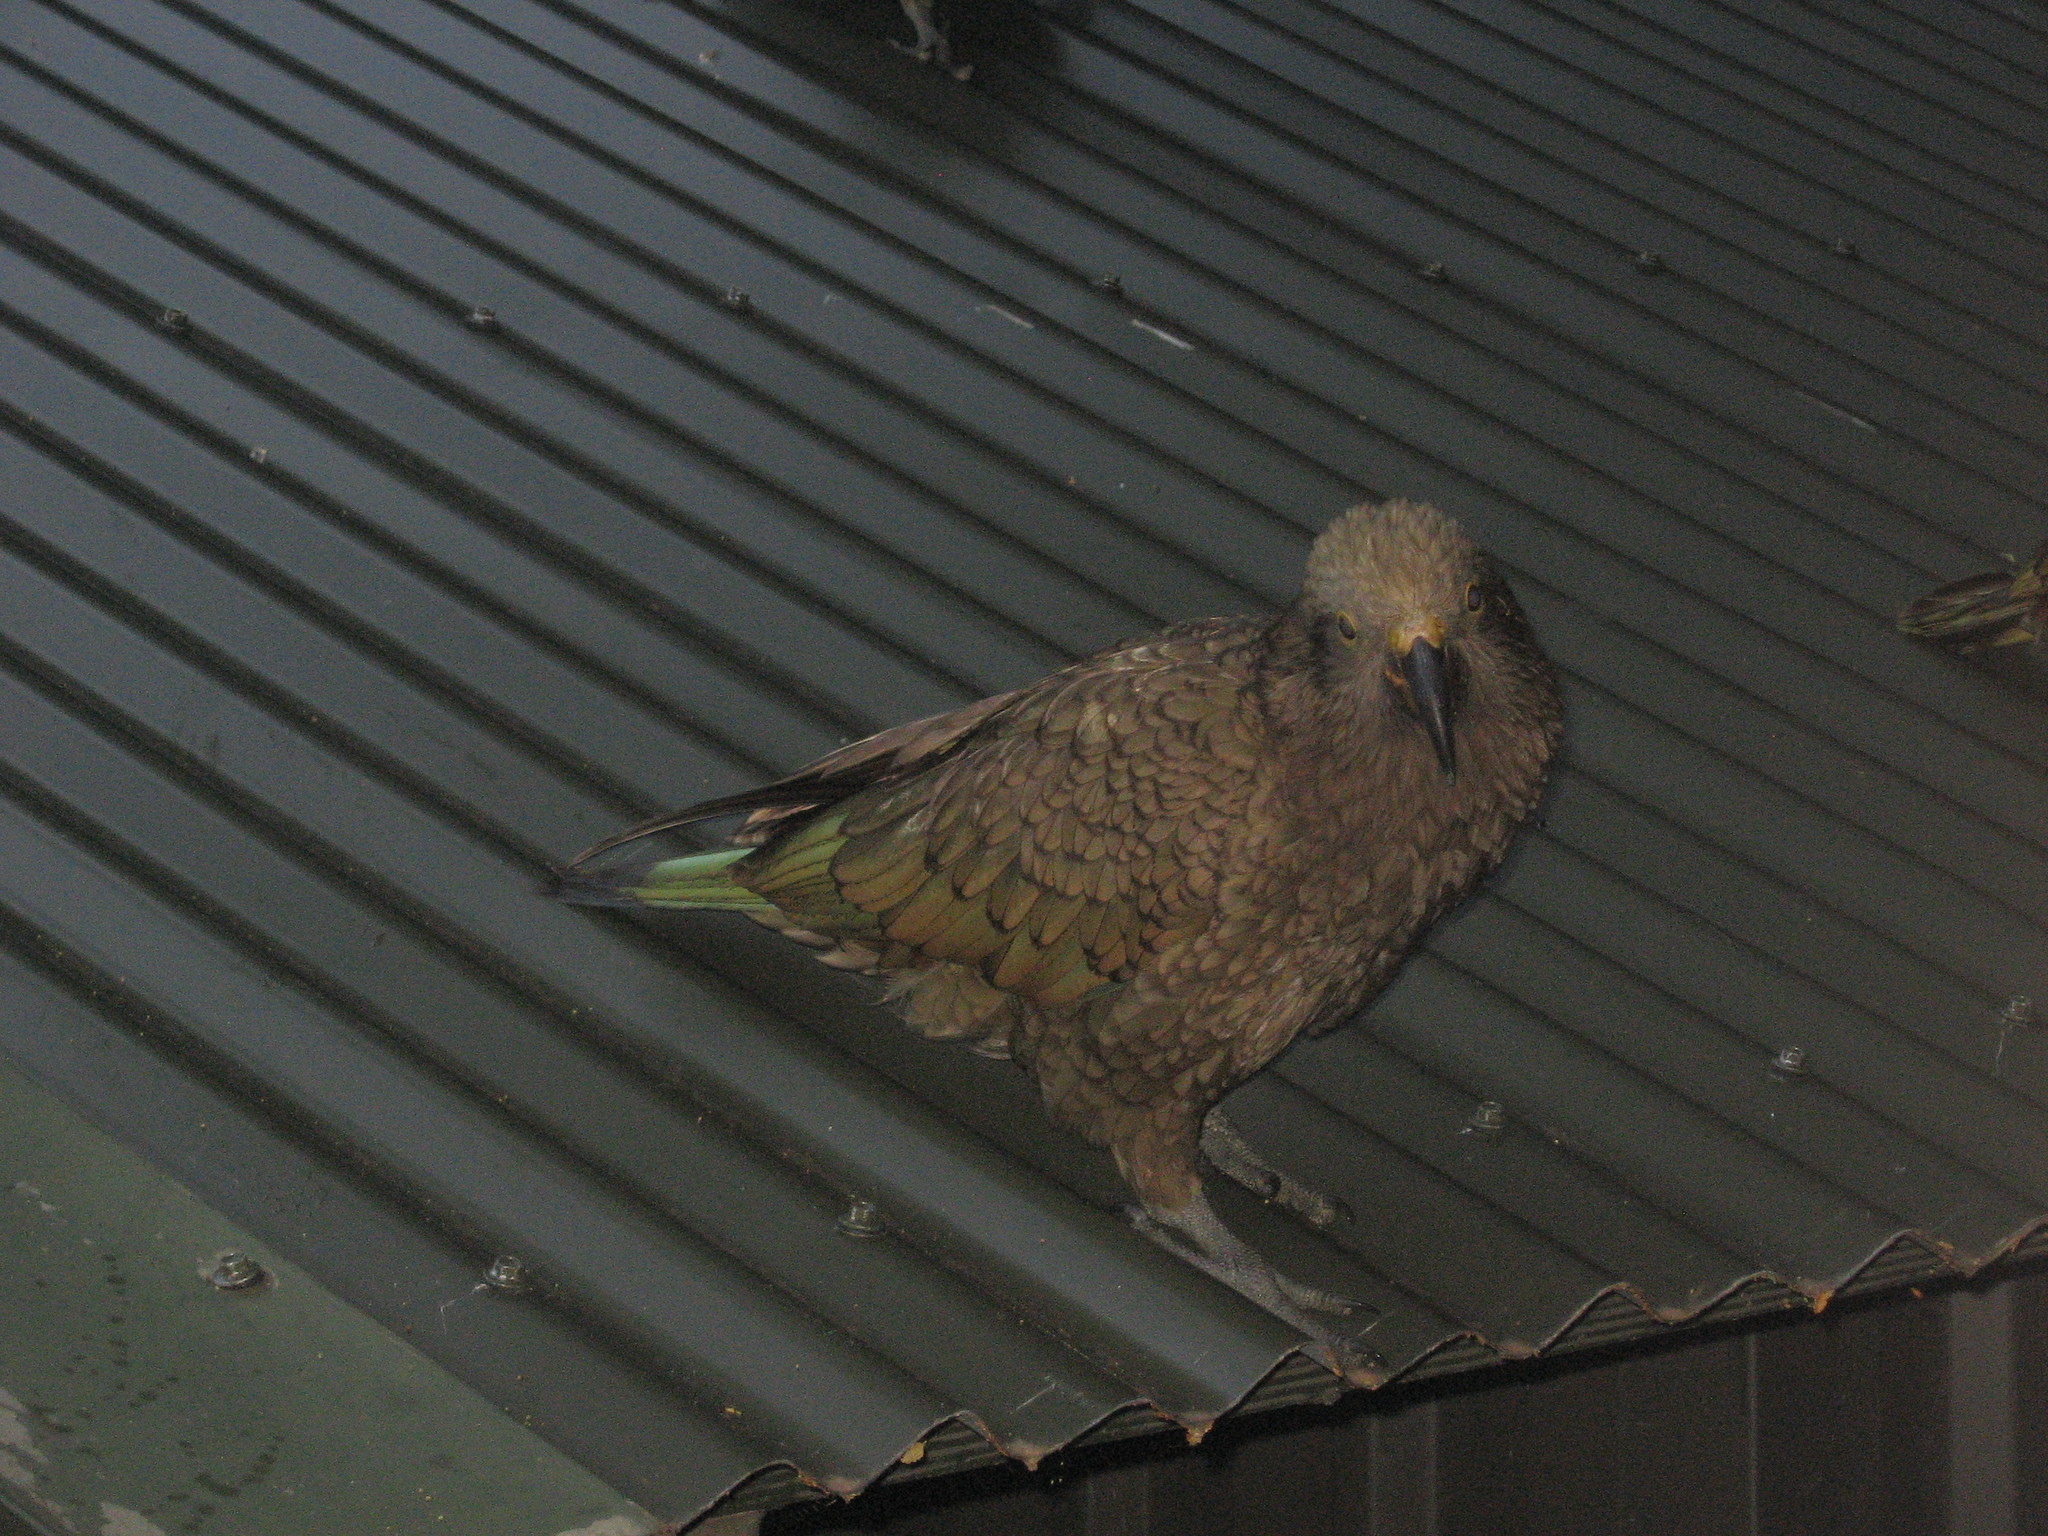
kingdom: Animalia
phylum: Chordata
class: Aves
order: Psittaciformes
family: Psittacidae
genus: Nestor
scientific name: Nestor notabilis
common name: Kea
